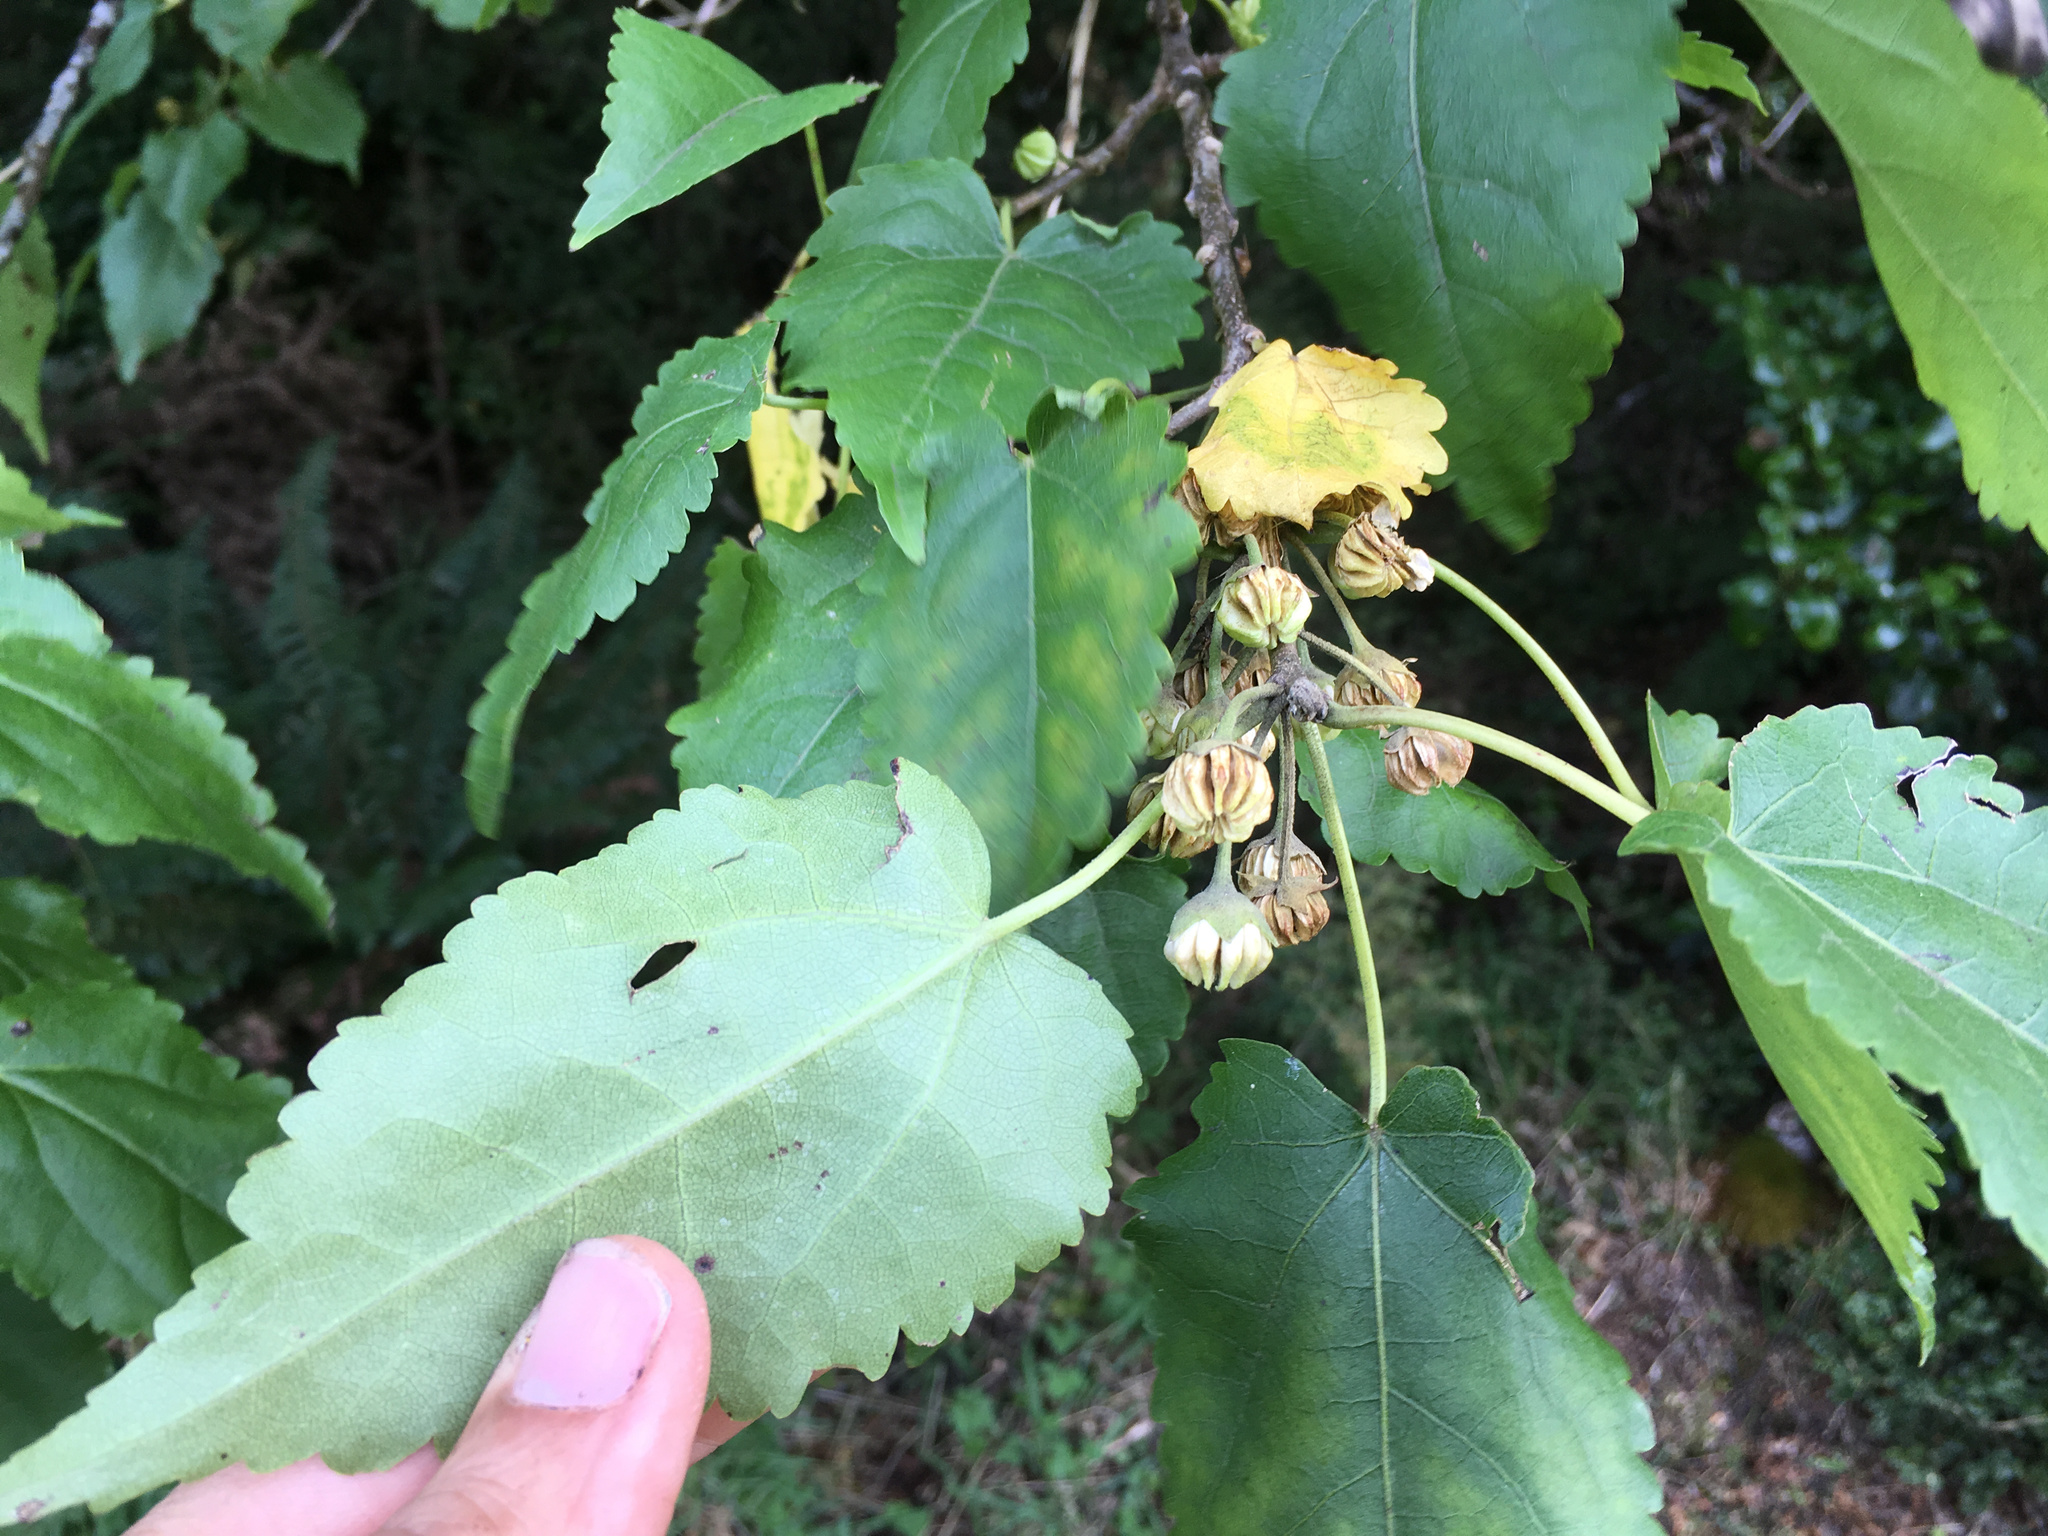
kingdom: Plantae
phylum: Tracheophyta
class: Magnoliopsida
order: Malvales
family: Malvaceae
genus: Hoheria
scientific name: Hoheria glabrata
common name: Mountain-ribbon
